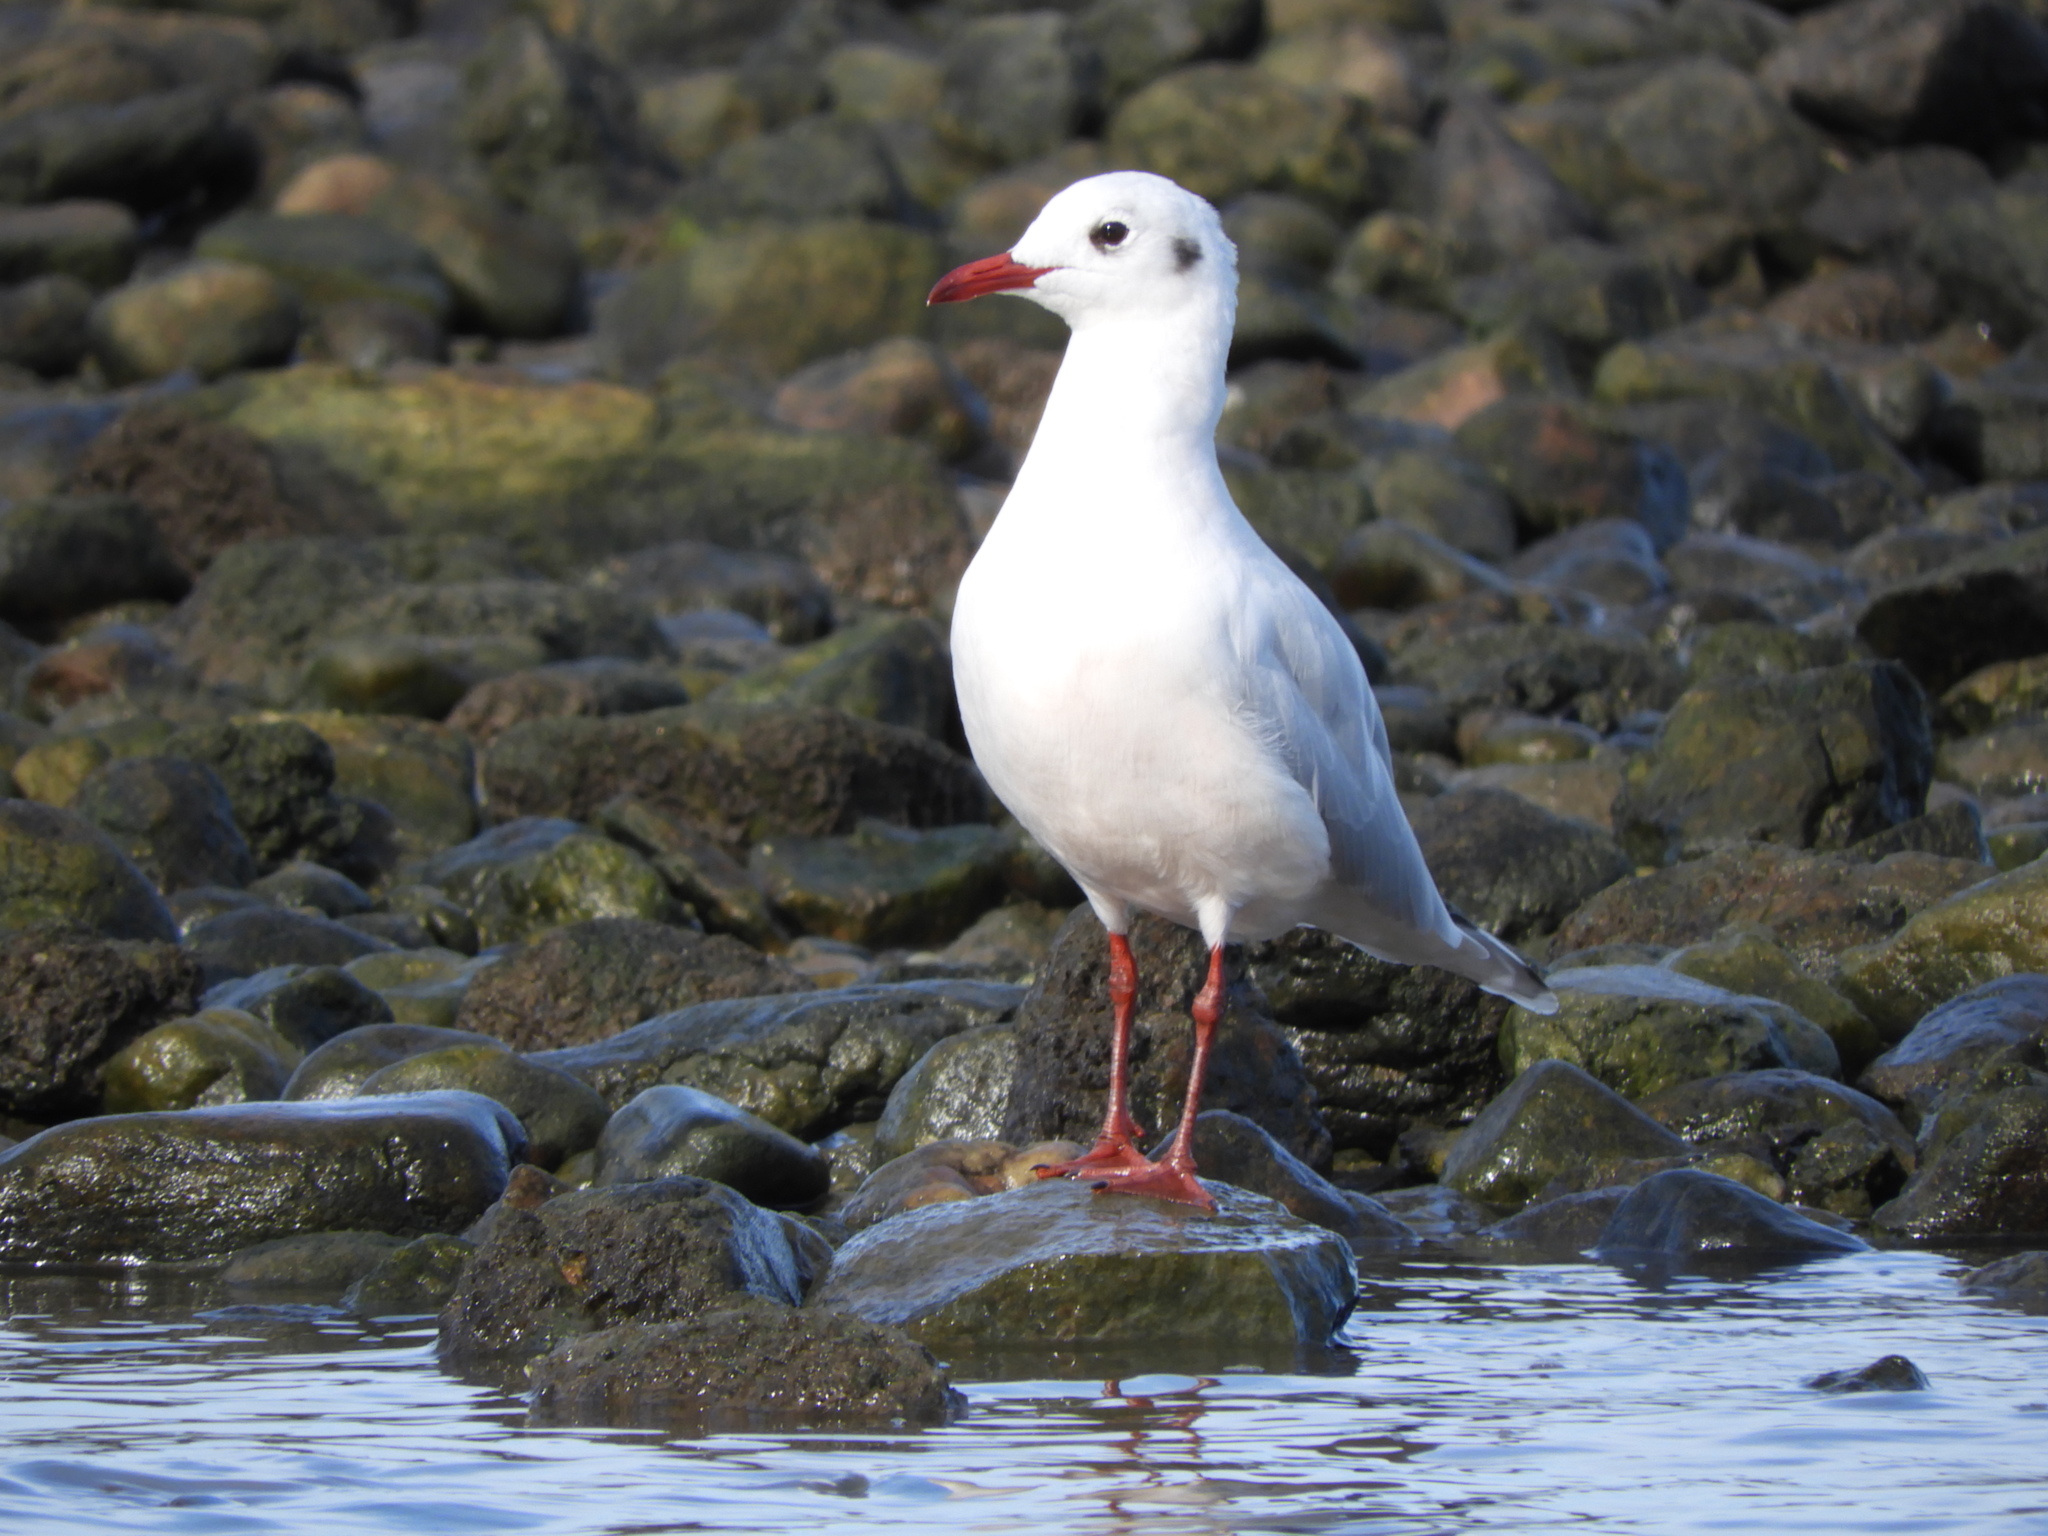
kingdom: Animalia
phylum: Chordata
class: Aves
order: Charadriiformes
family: Laridae
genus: Chroicocephalus
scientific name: Chroicocephalus maculipennis
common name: Brown-hooded gull
